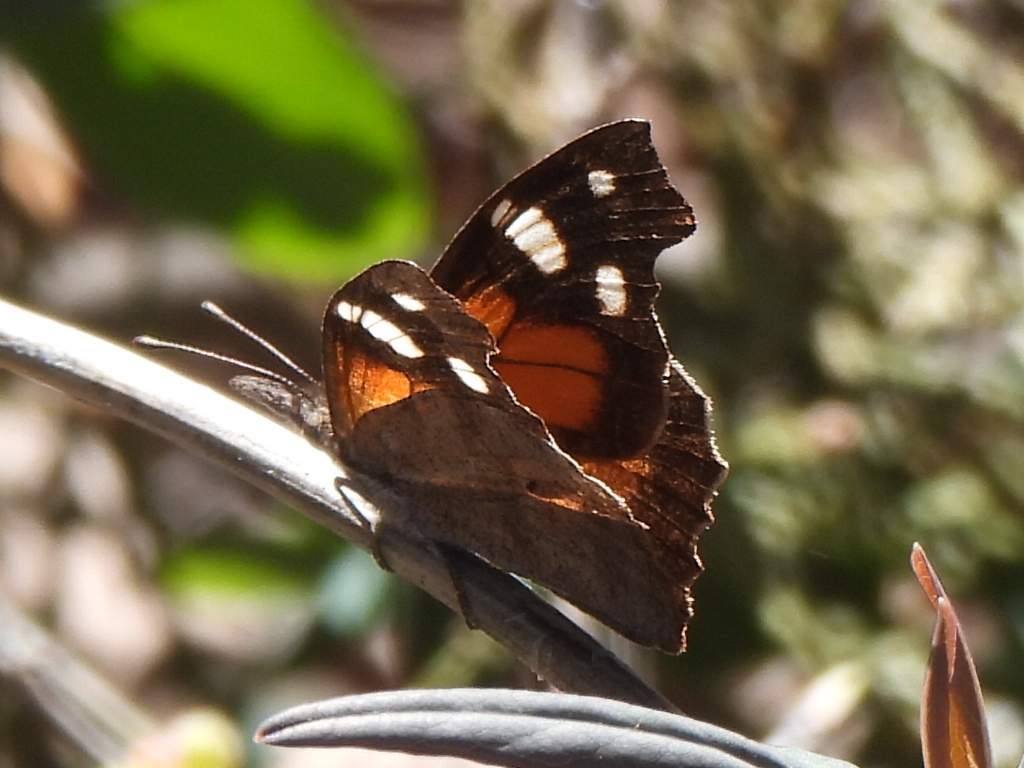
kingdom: Animalia
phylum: Arthropoda
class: Insecta
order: Lepidoptera
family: Nymphalidae
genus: Libytheana
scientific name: Libytheana carinenta
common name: American snout
